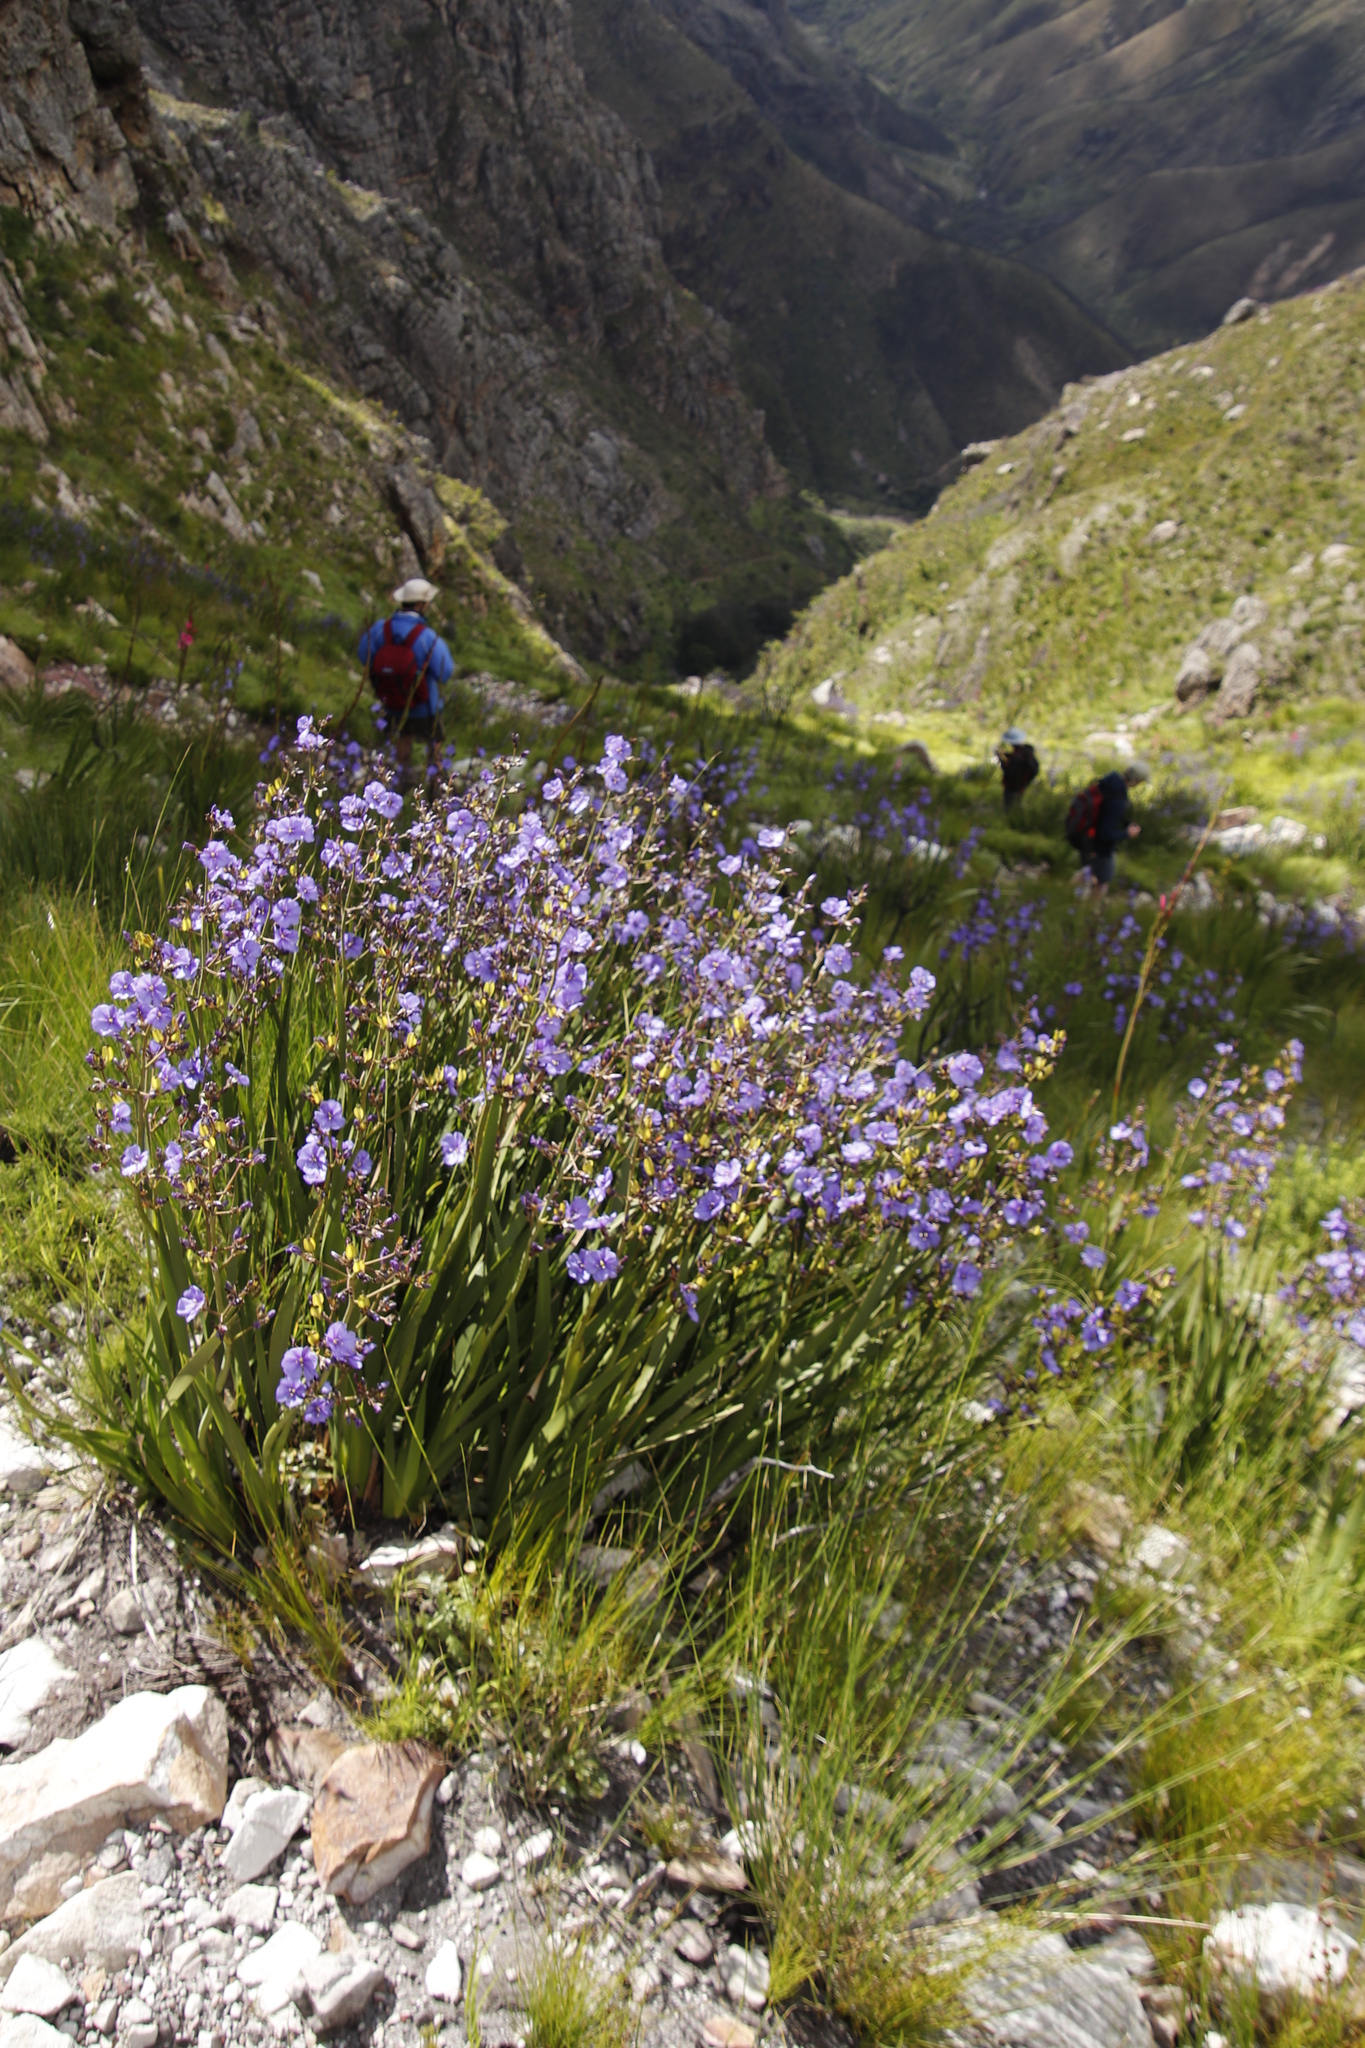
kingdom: Plantae
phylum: Tracheophyta
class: Liliopsida
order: Asparagales
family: Iridaceae
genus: Aristea
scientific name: Aristea bakeri
